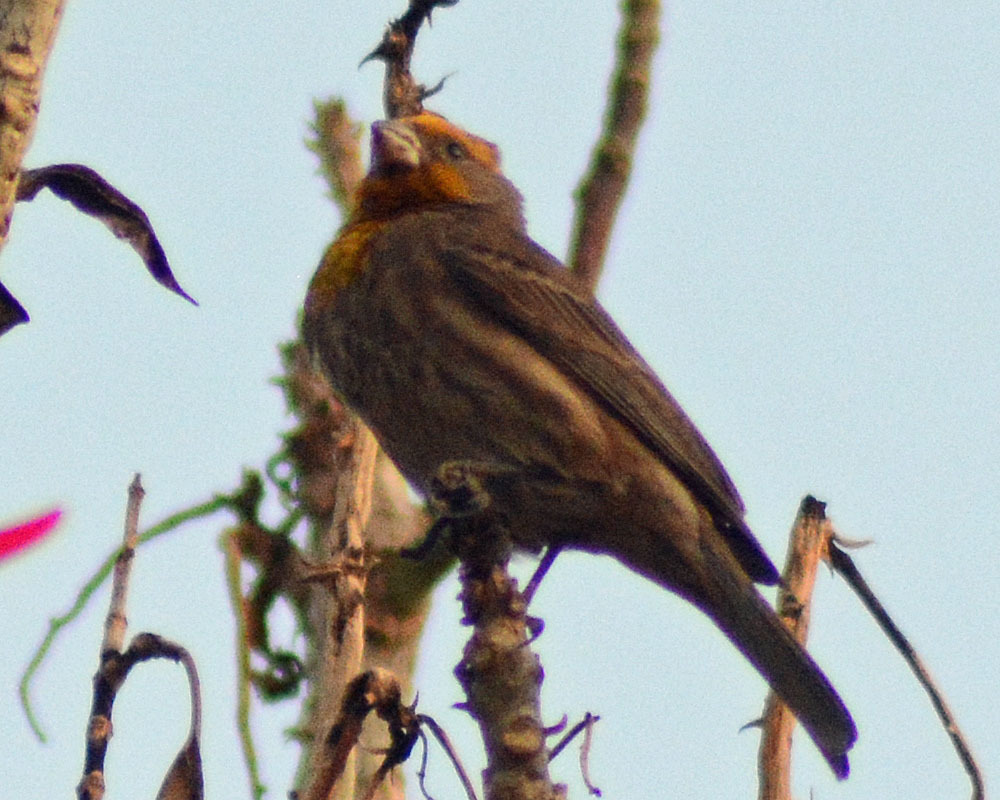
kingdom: Animalia
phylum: Chordata
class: Aves
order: Passeriformes
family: Fringillidae
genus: Haemorhous
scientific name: Haemorhous mexicanus
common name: House finch
